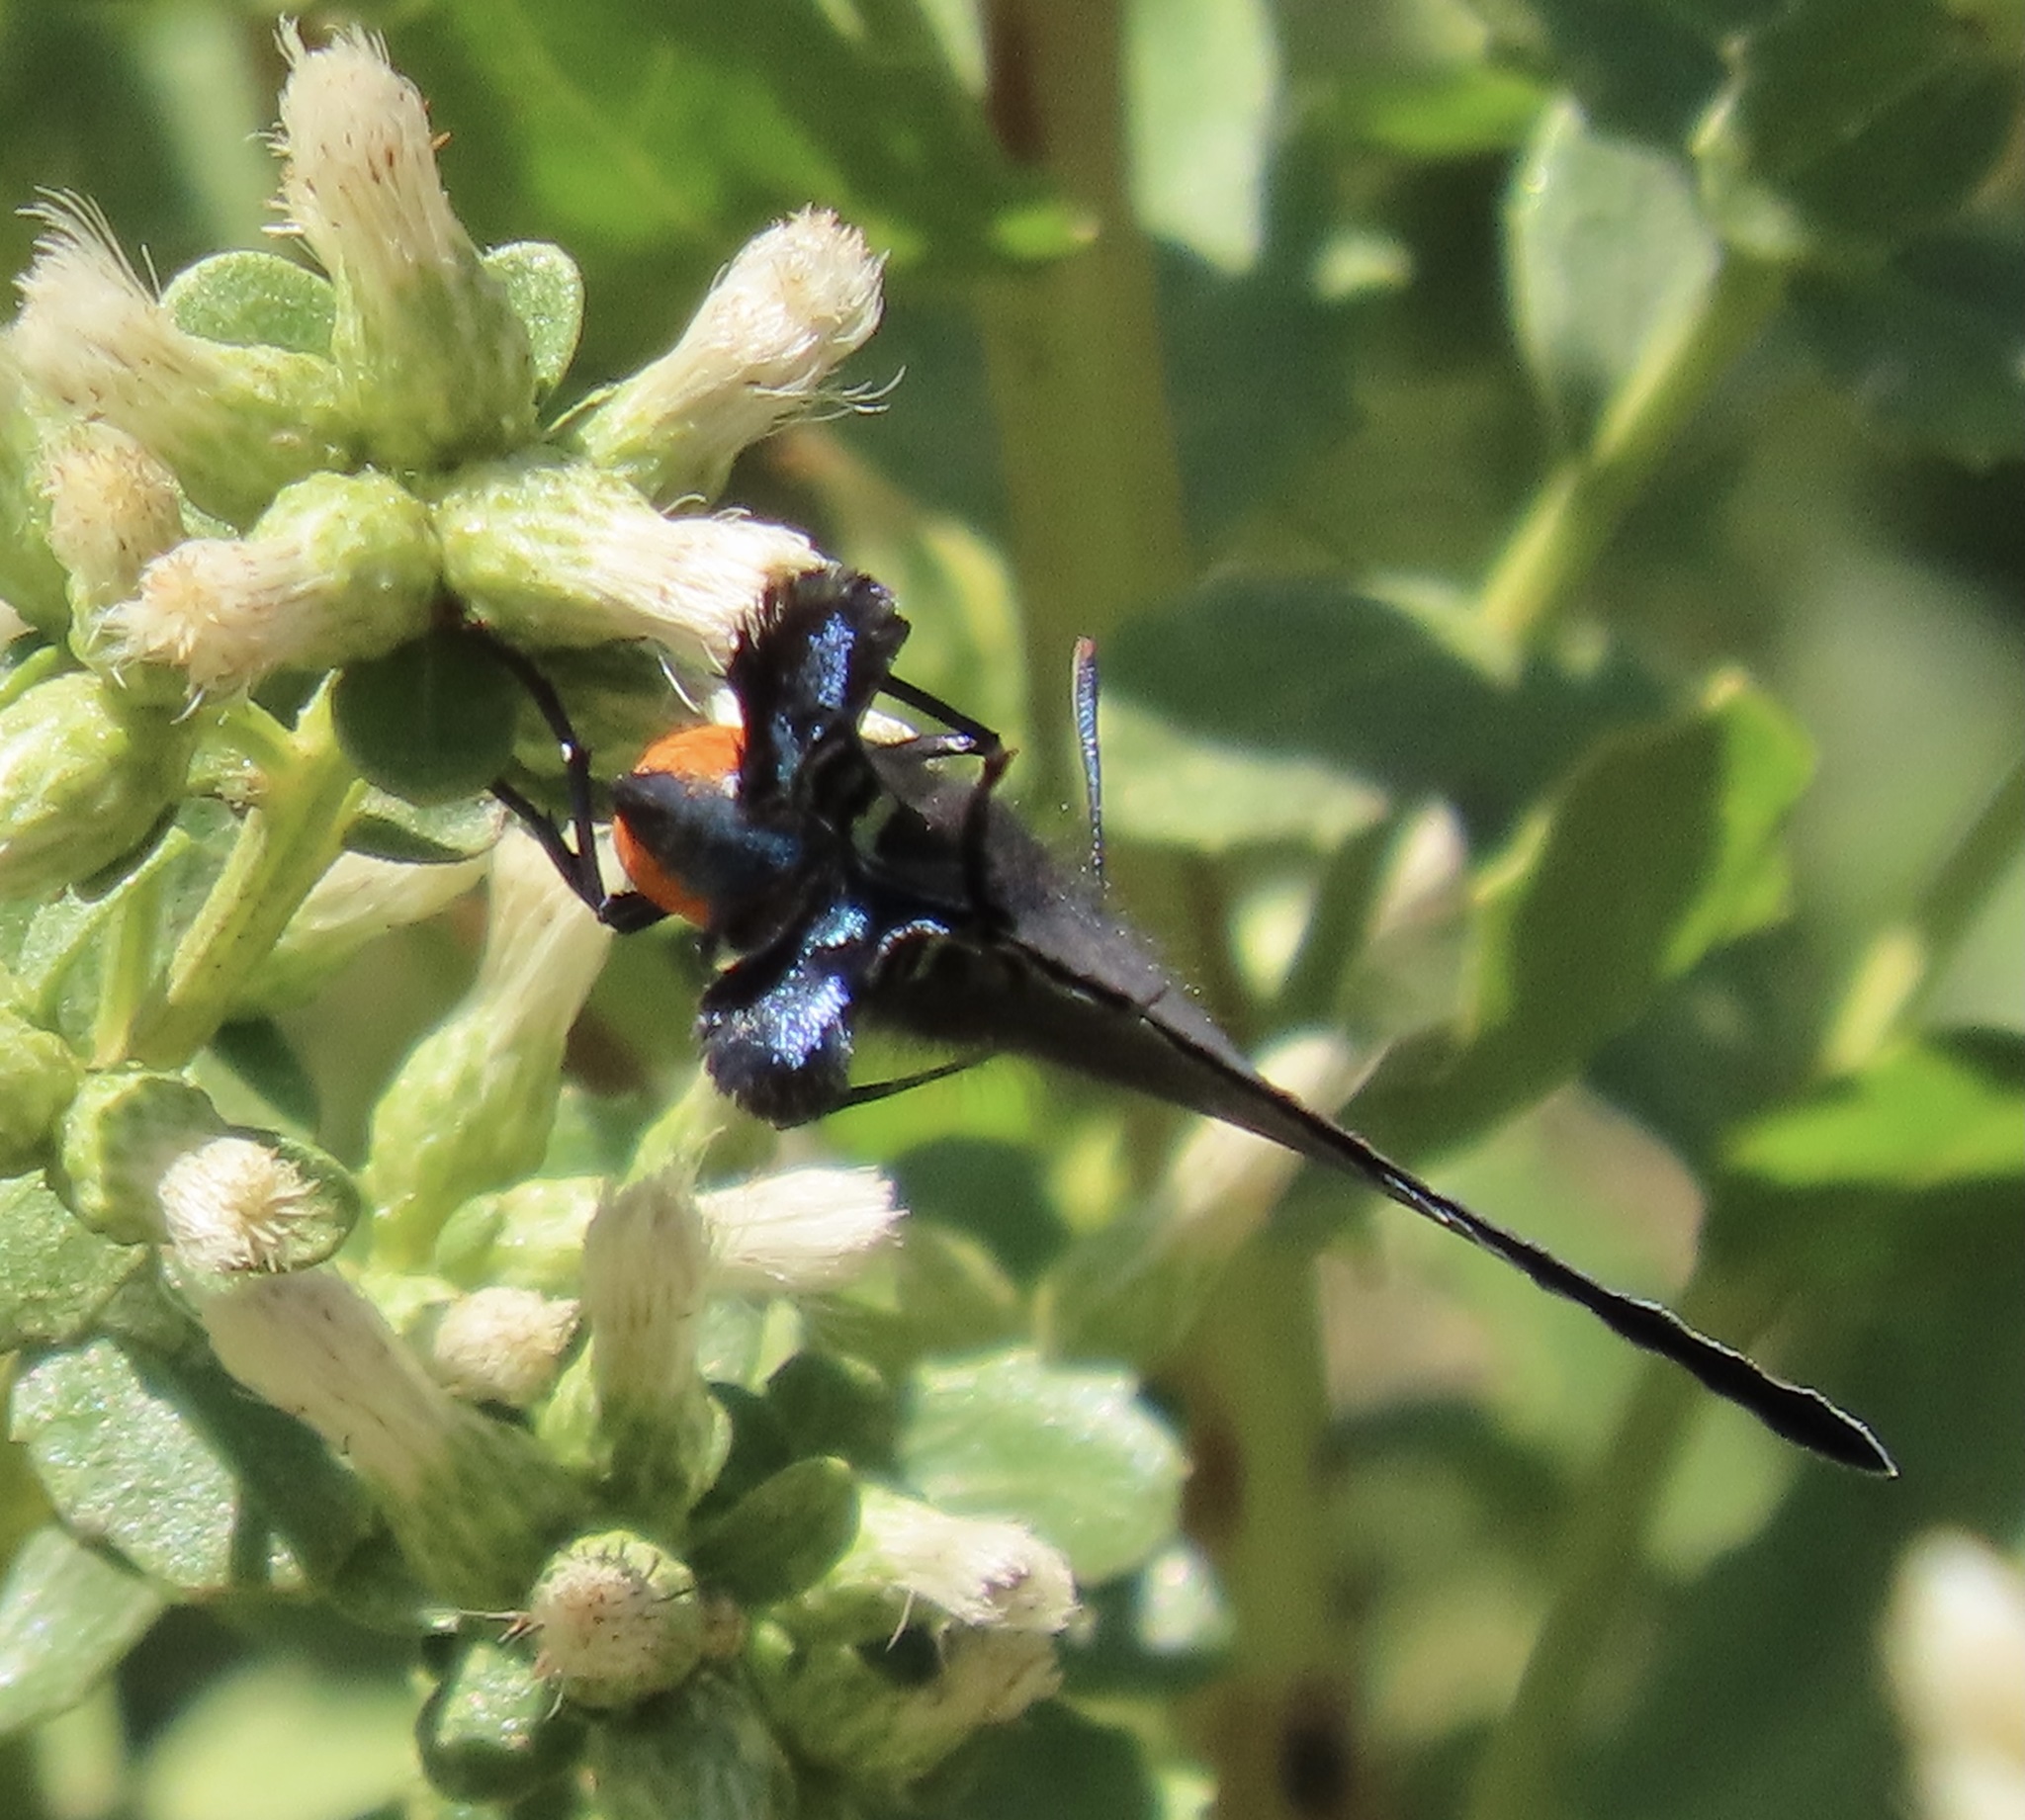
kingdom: Animalia
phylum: Arthropoda
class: Insecta
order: Lepidoptera
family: Lycaenidae
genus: Atlides
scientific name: Atlides halesus
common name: Great purple hairstreak
